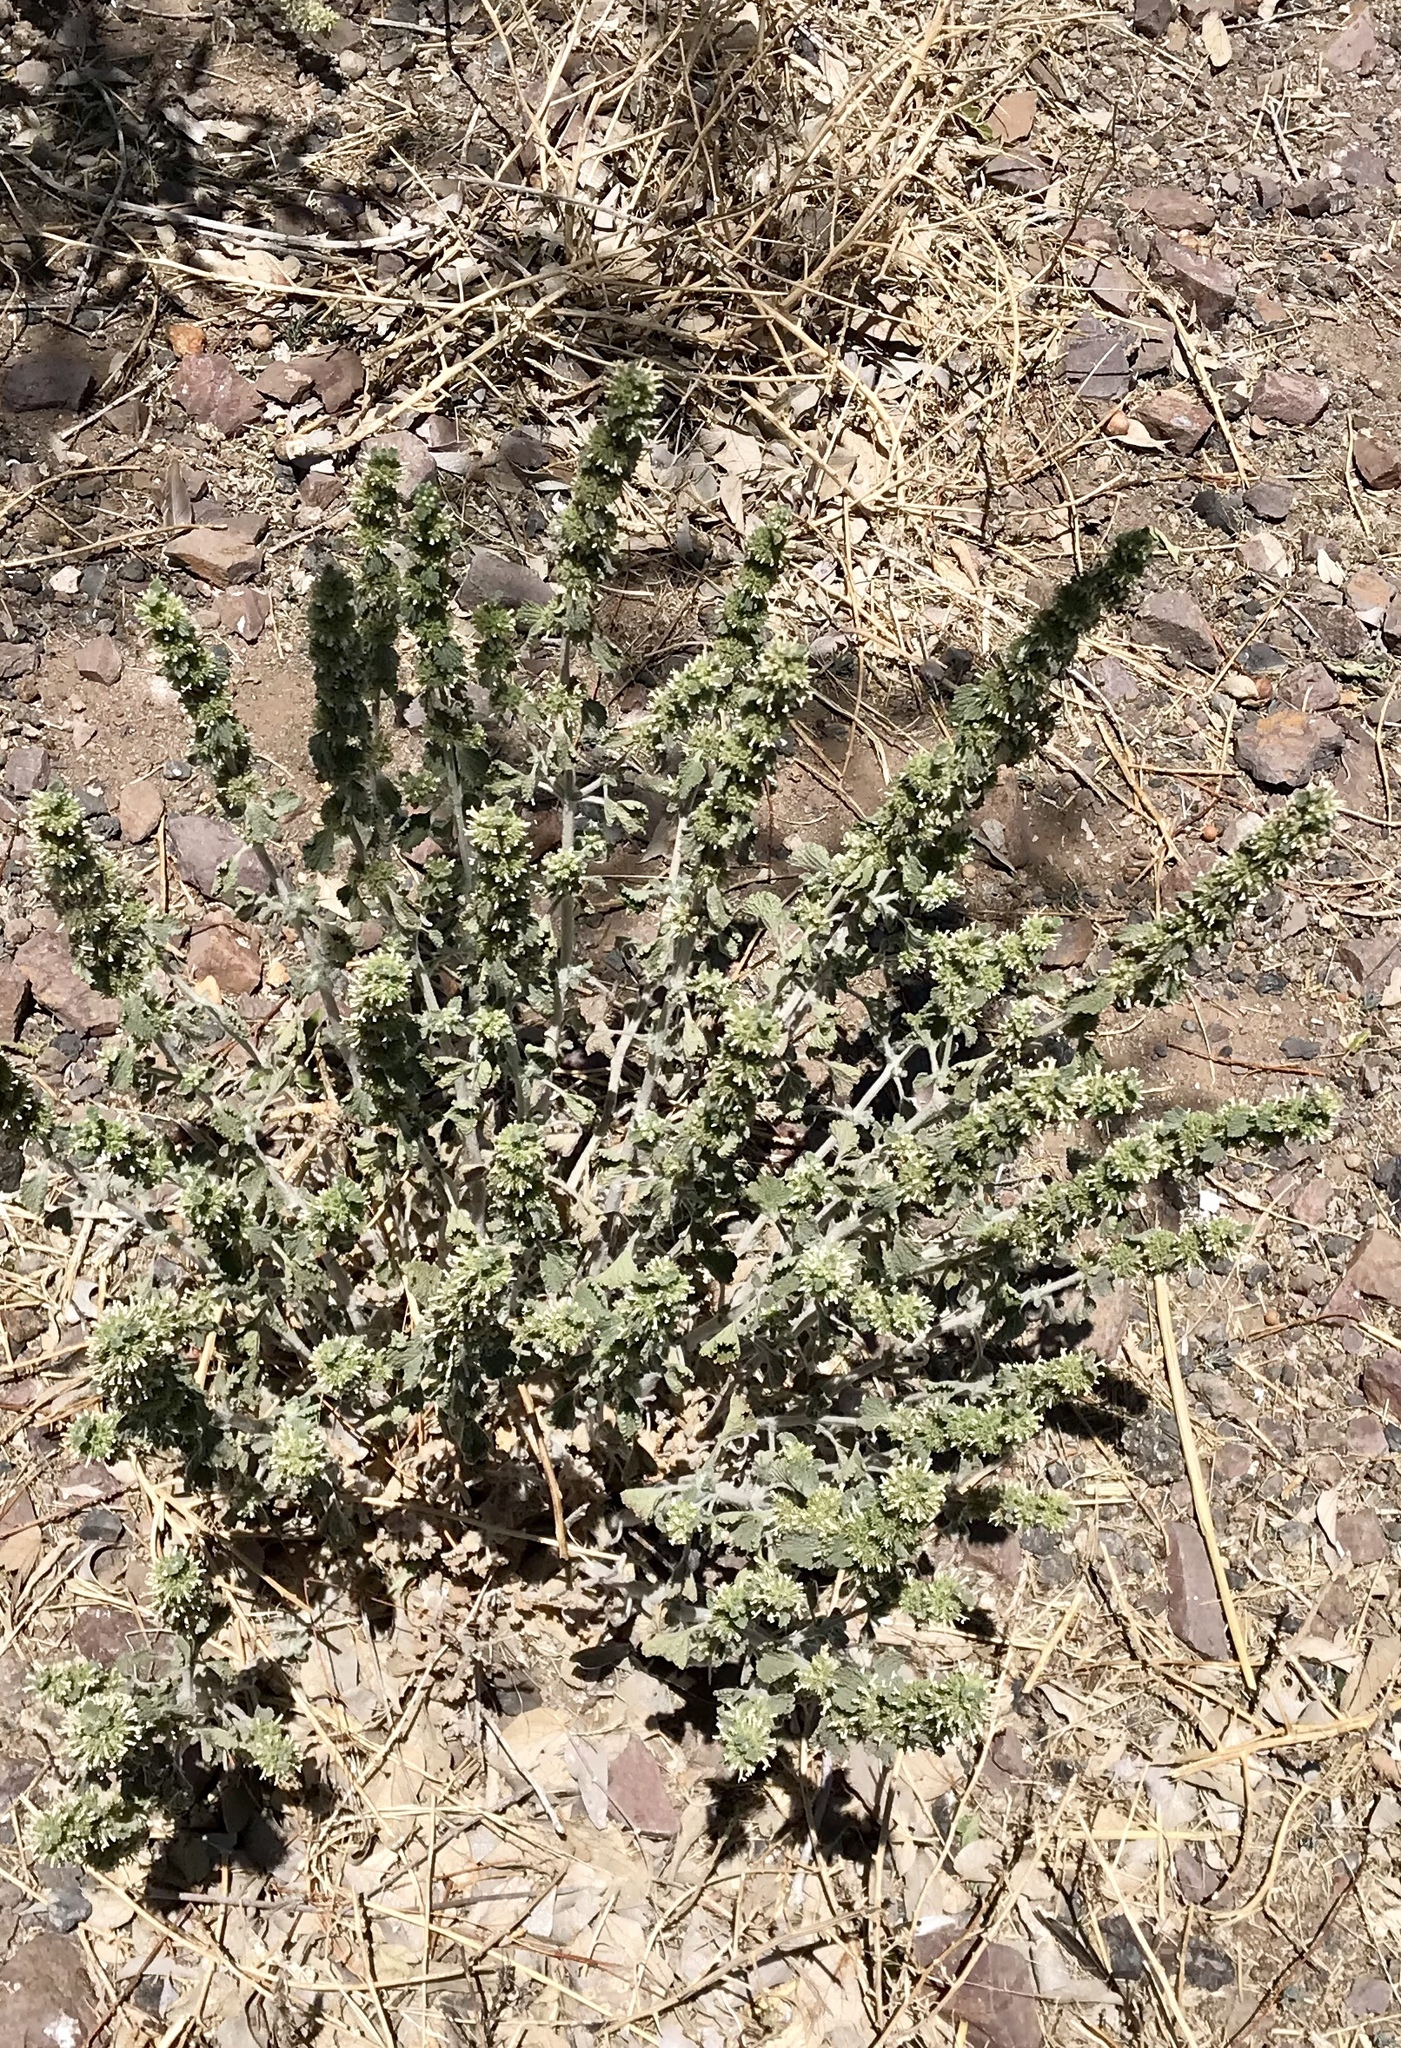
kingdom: Plantae
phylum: Tracheophyta
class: Magnoliopsida
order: Lamiales
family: Lamiaceae
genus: Marrubium
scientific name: Marrubium vulgare
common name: Horehound
